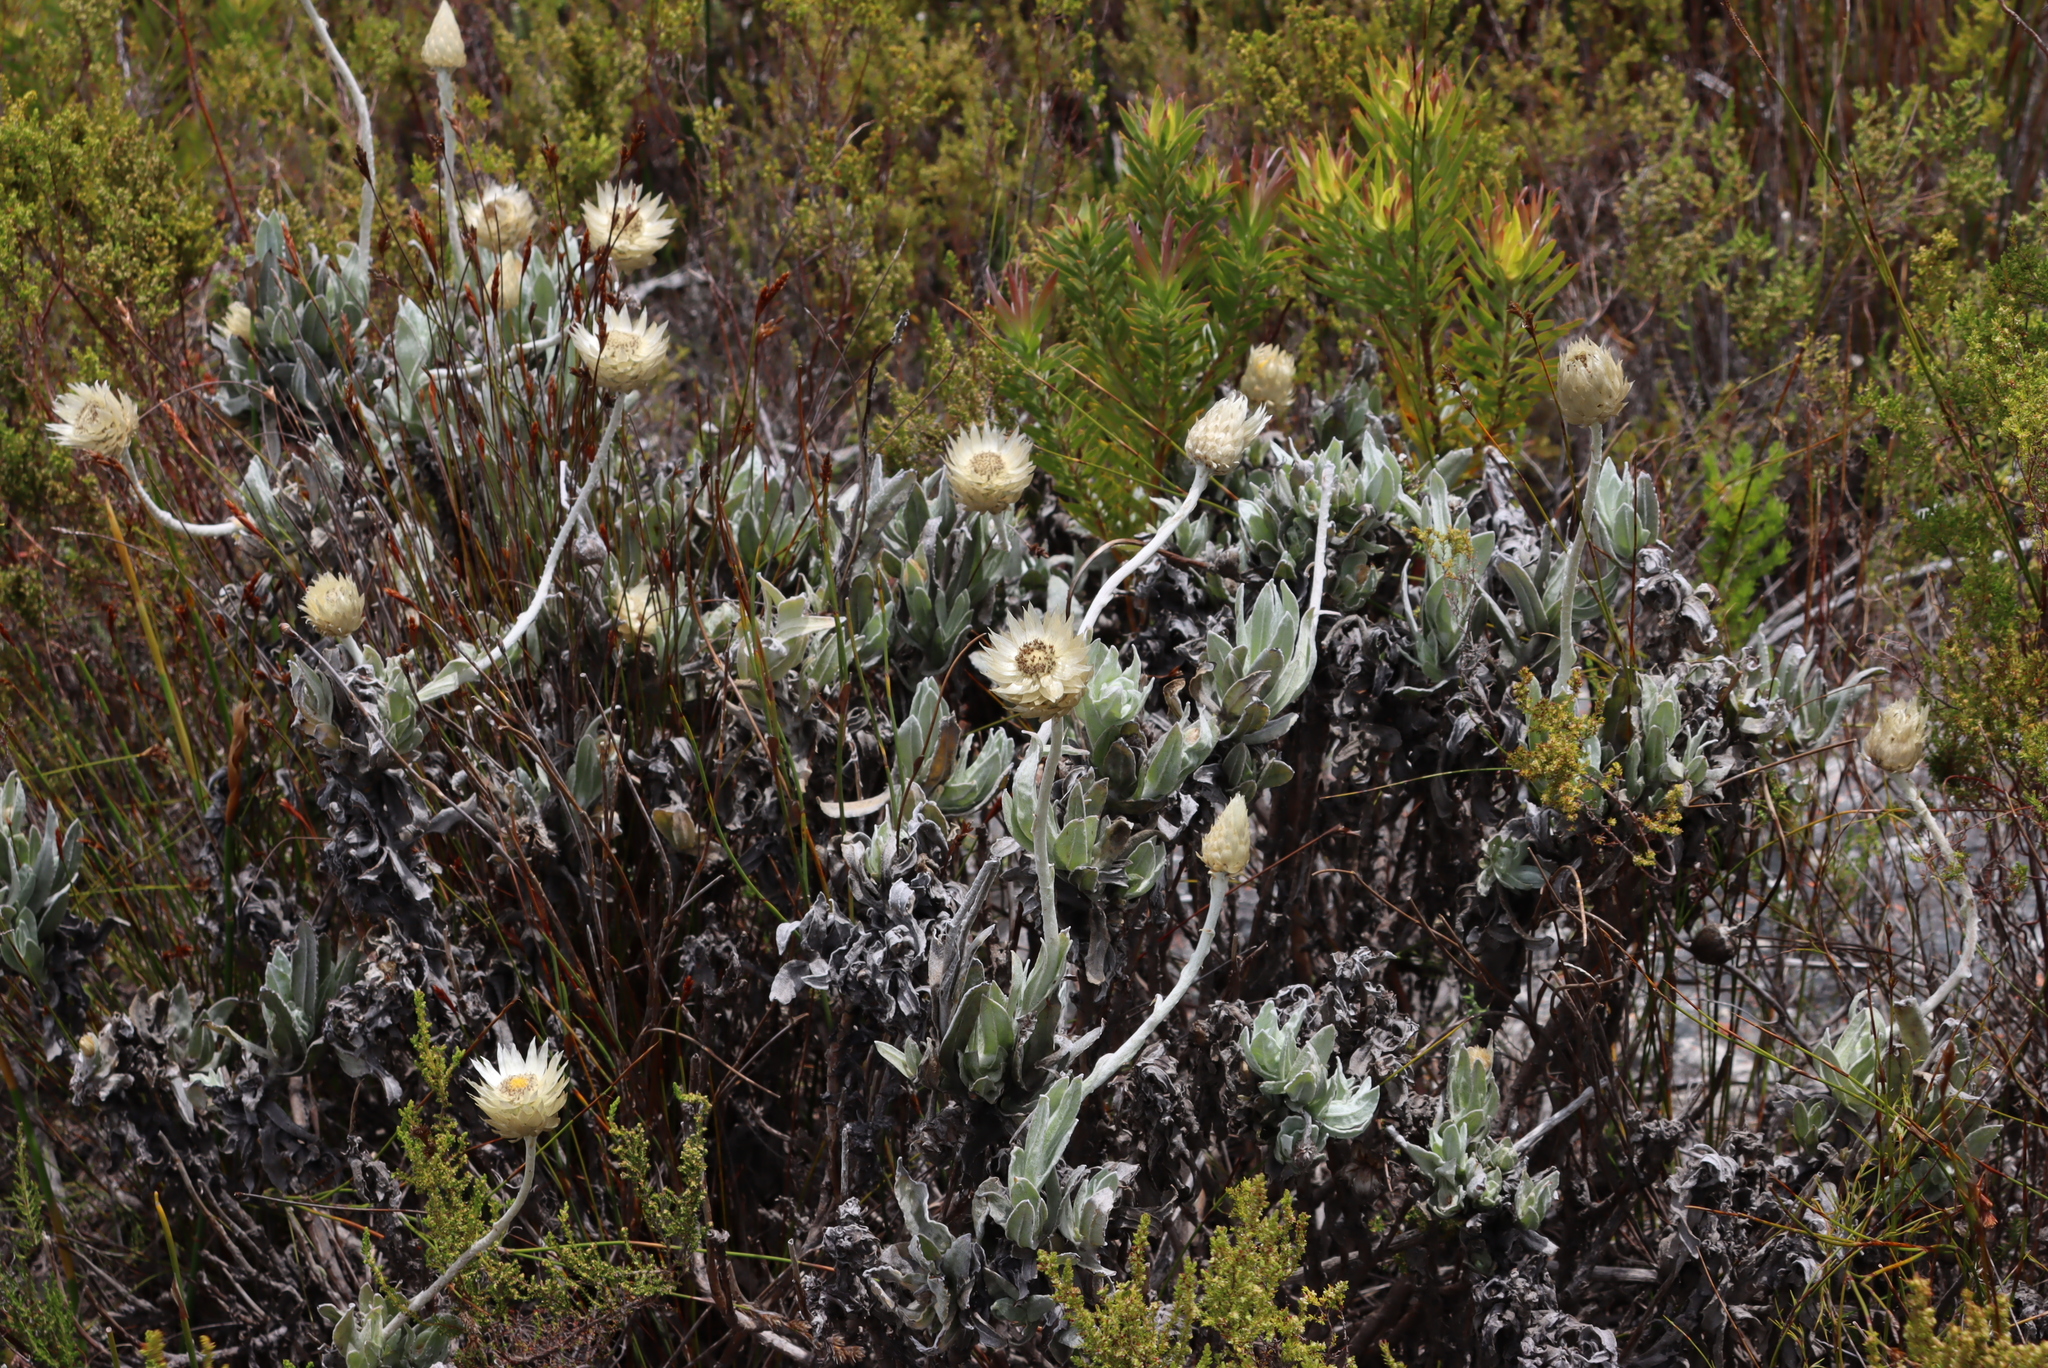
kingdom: Plantae
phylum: Tracheophyta
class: Magnoliopsida
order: Asterales
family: Asteraceae
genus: Syncarpha
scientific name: Syncarpha speciosissima
